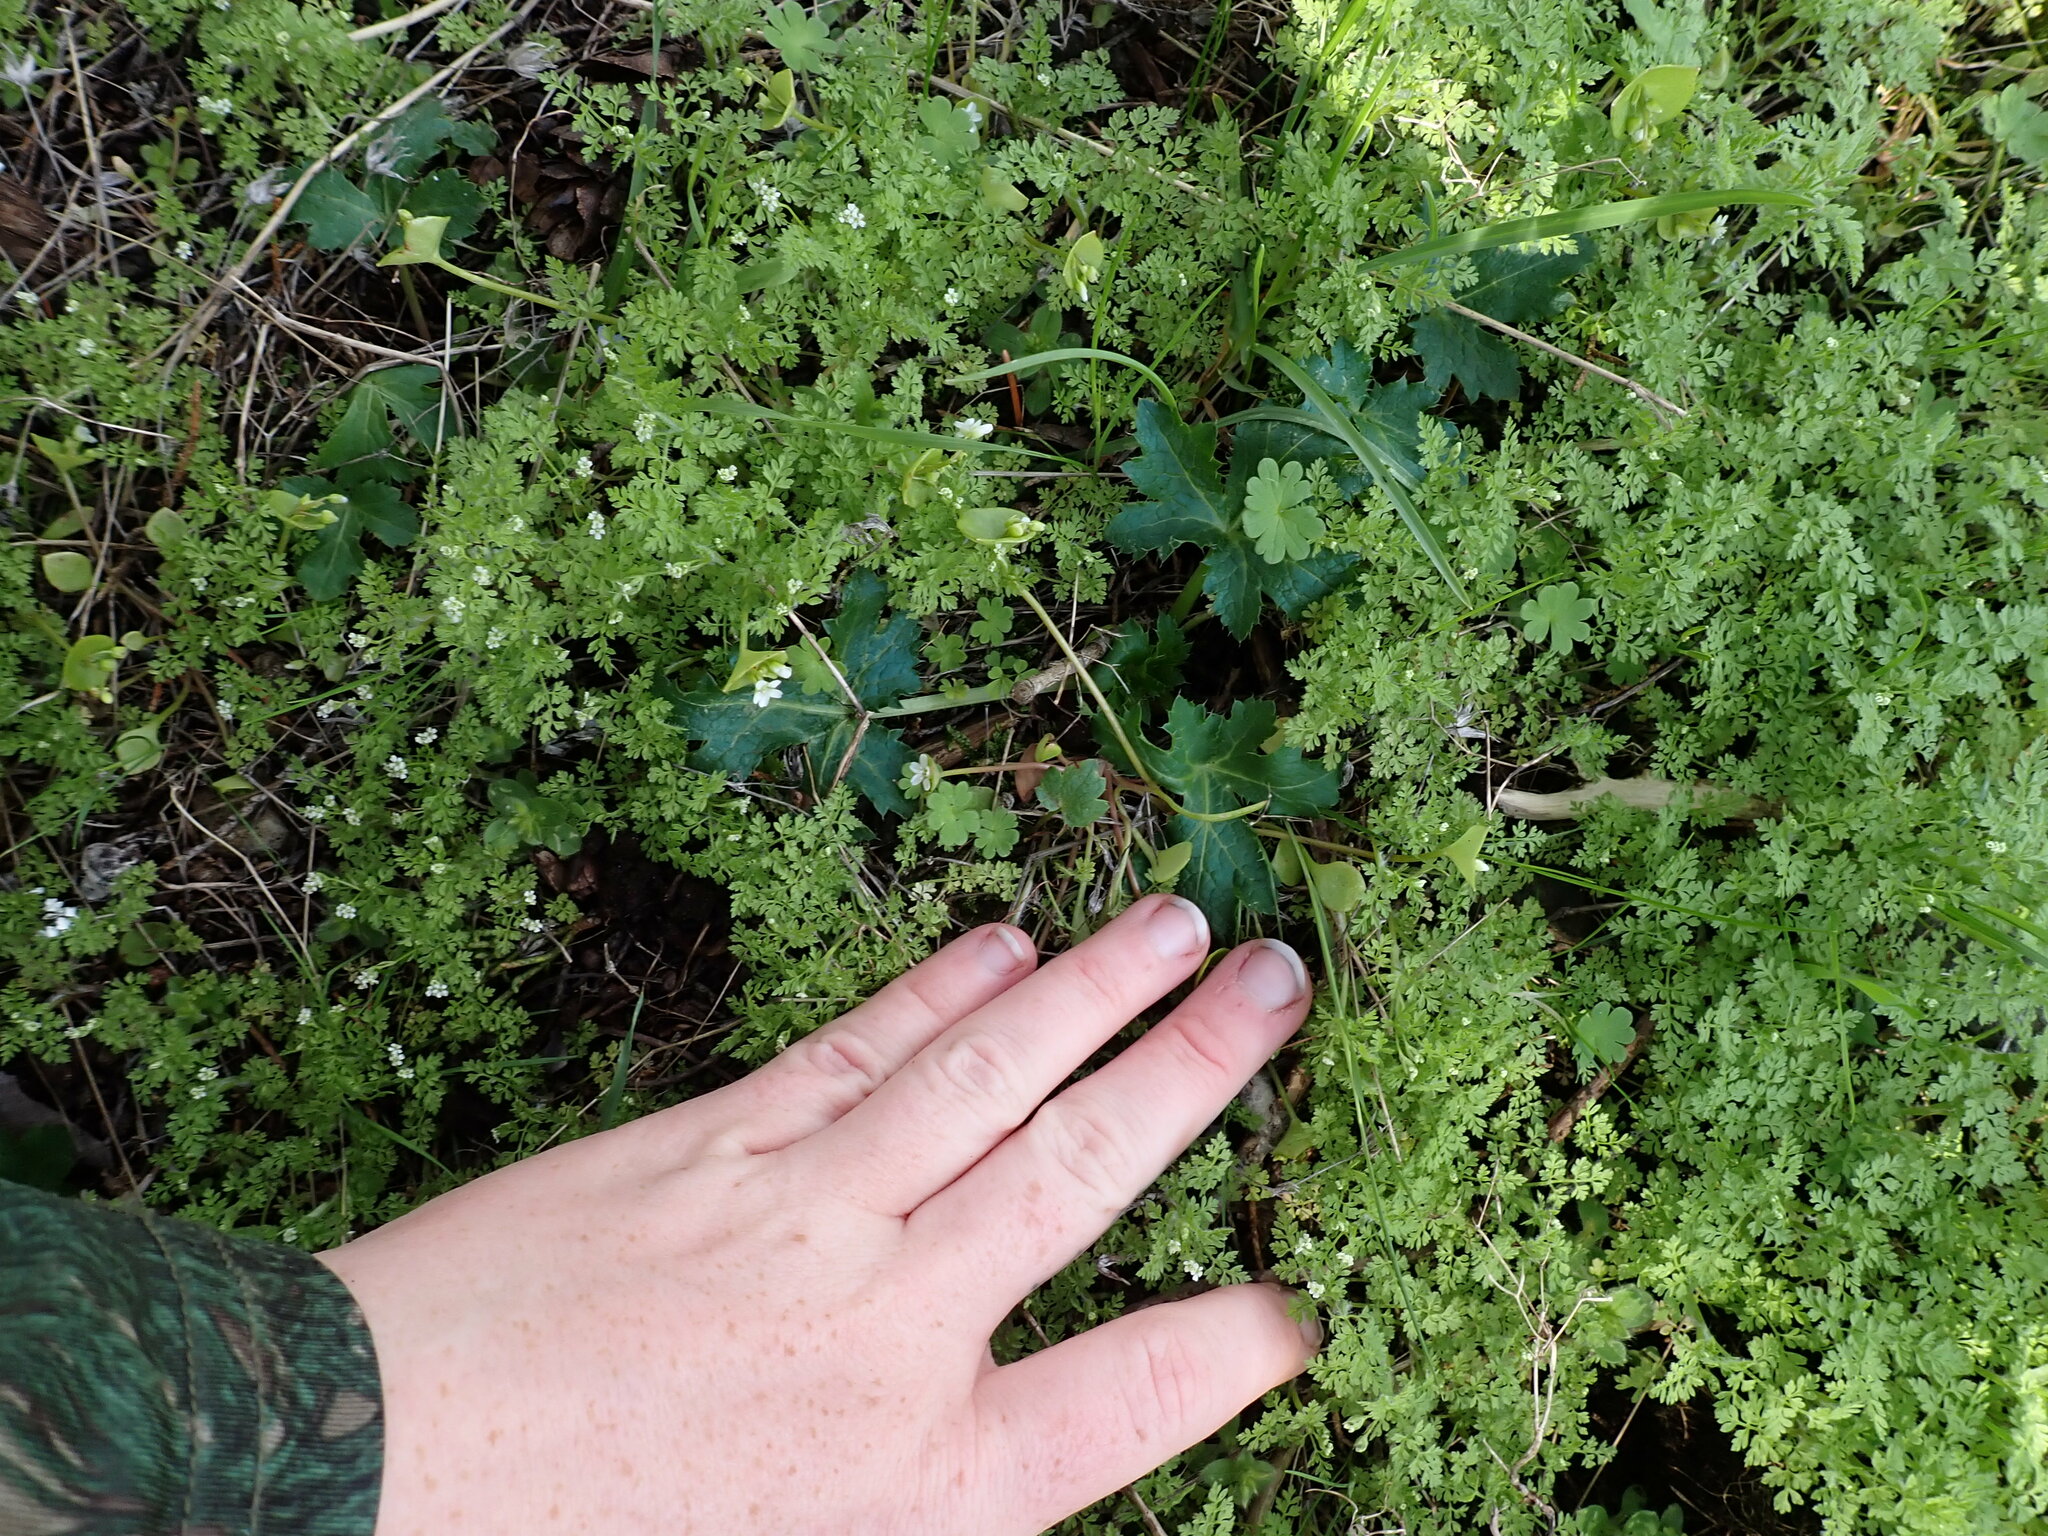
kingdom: Plantae
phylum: Tracheophyta
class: Magnoliopsida
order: Apiales
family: Apiaceae
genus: Sanicula
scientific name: Sanicula crassicaulis
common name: Western snakeroot
